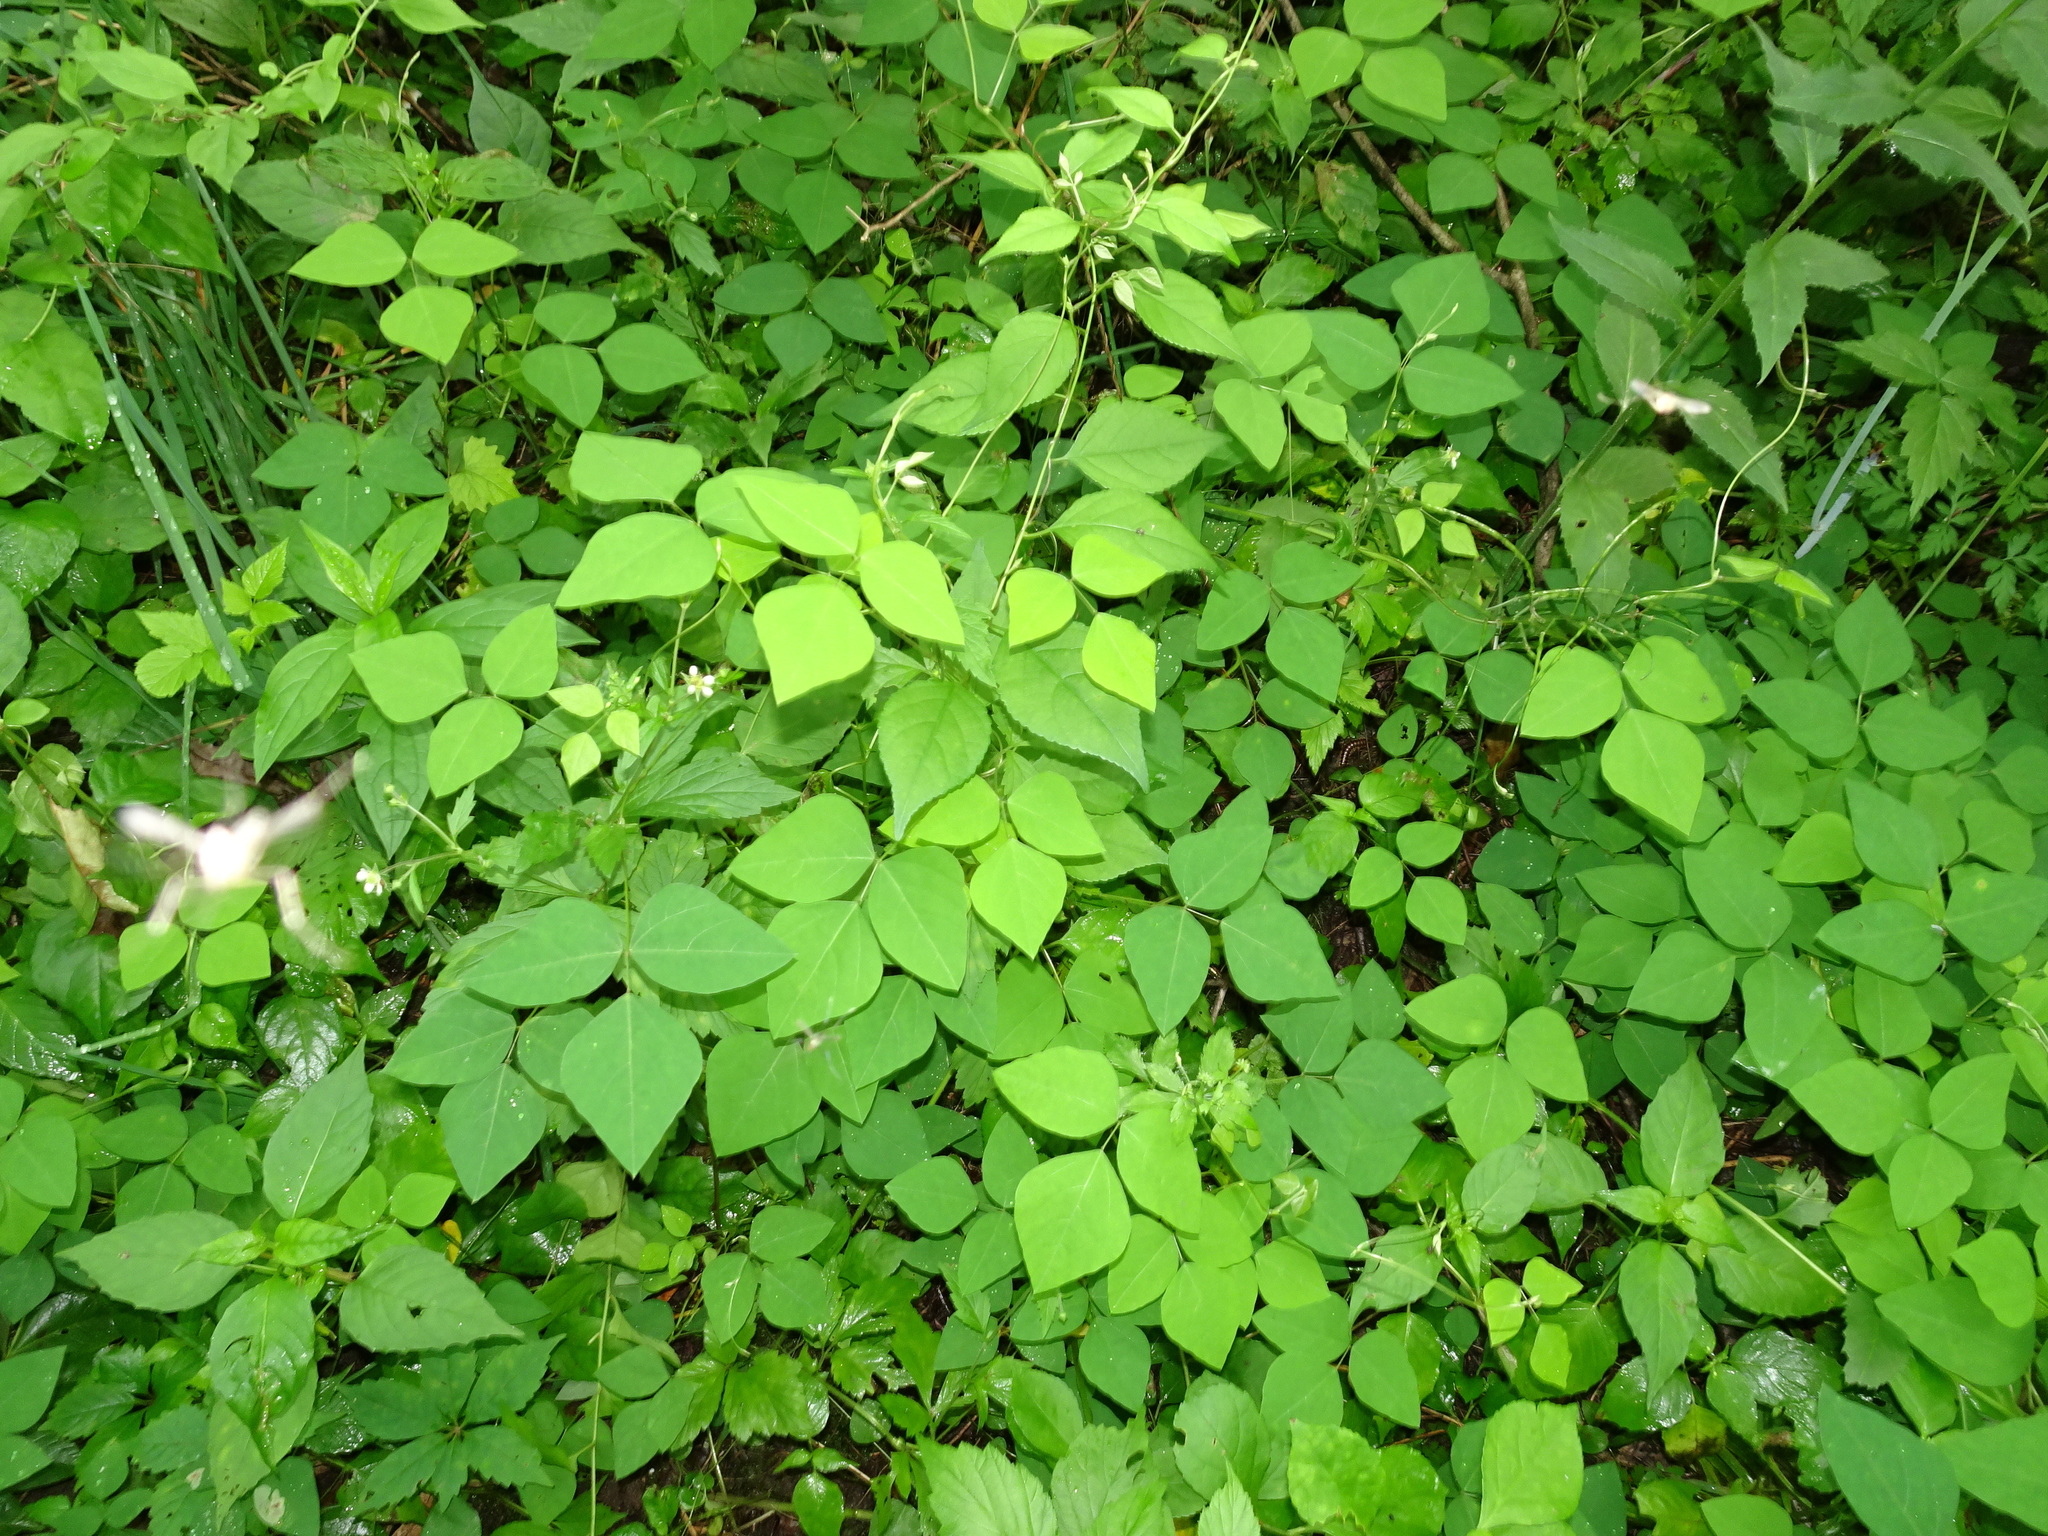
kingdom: Plantae
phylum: Tracheophyta
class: Magnoliopsida
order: Fabales
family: Fabaceae
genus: Amphicarpaea
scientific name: Amphicarpaea bracteata
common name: American hog peanut
